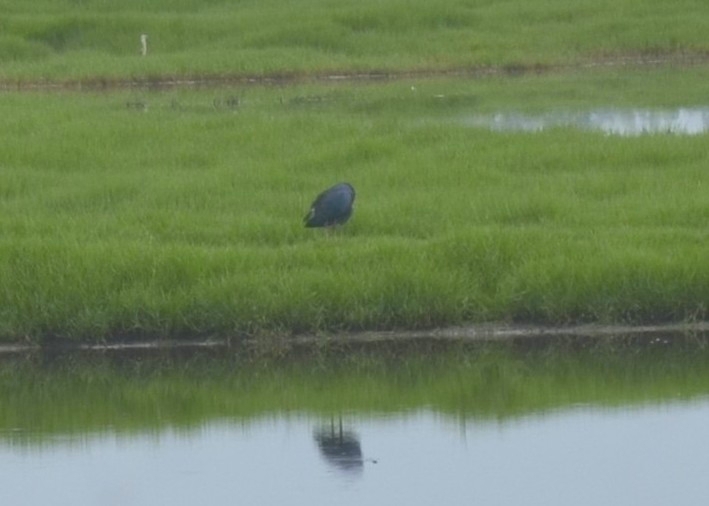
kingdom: Animalia
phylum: Chordata
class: Aves
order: Gruiformes
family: Rallidae
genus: Porphyrio
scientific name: Porphyrio porphyrio
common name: Purple swamphen
